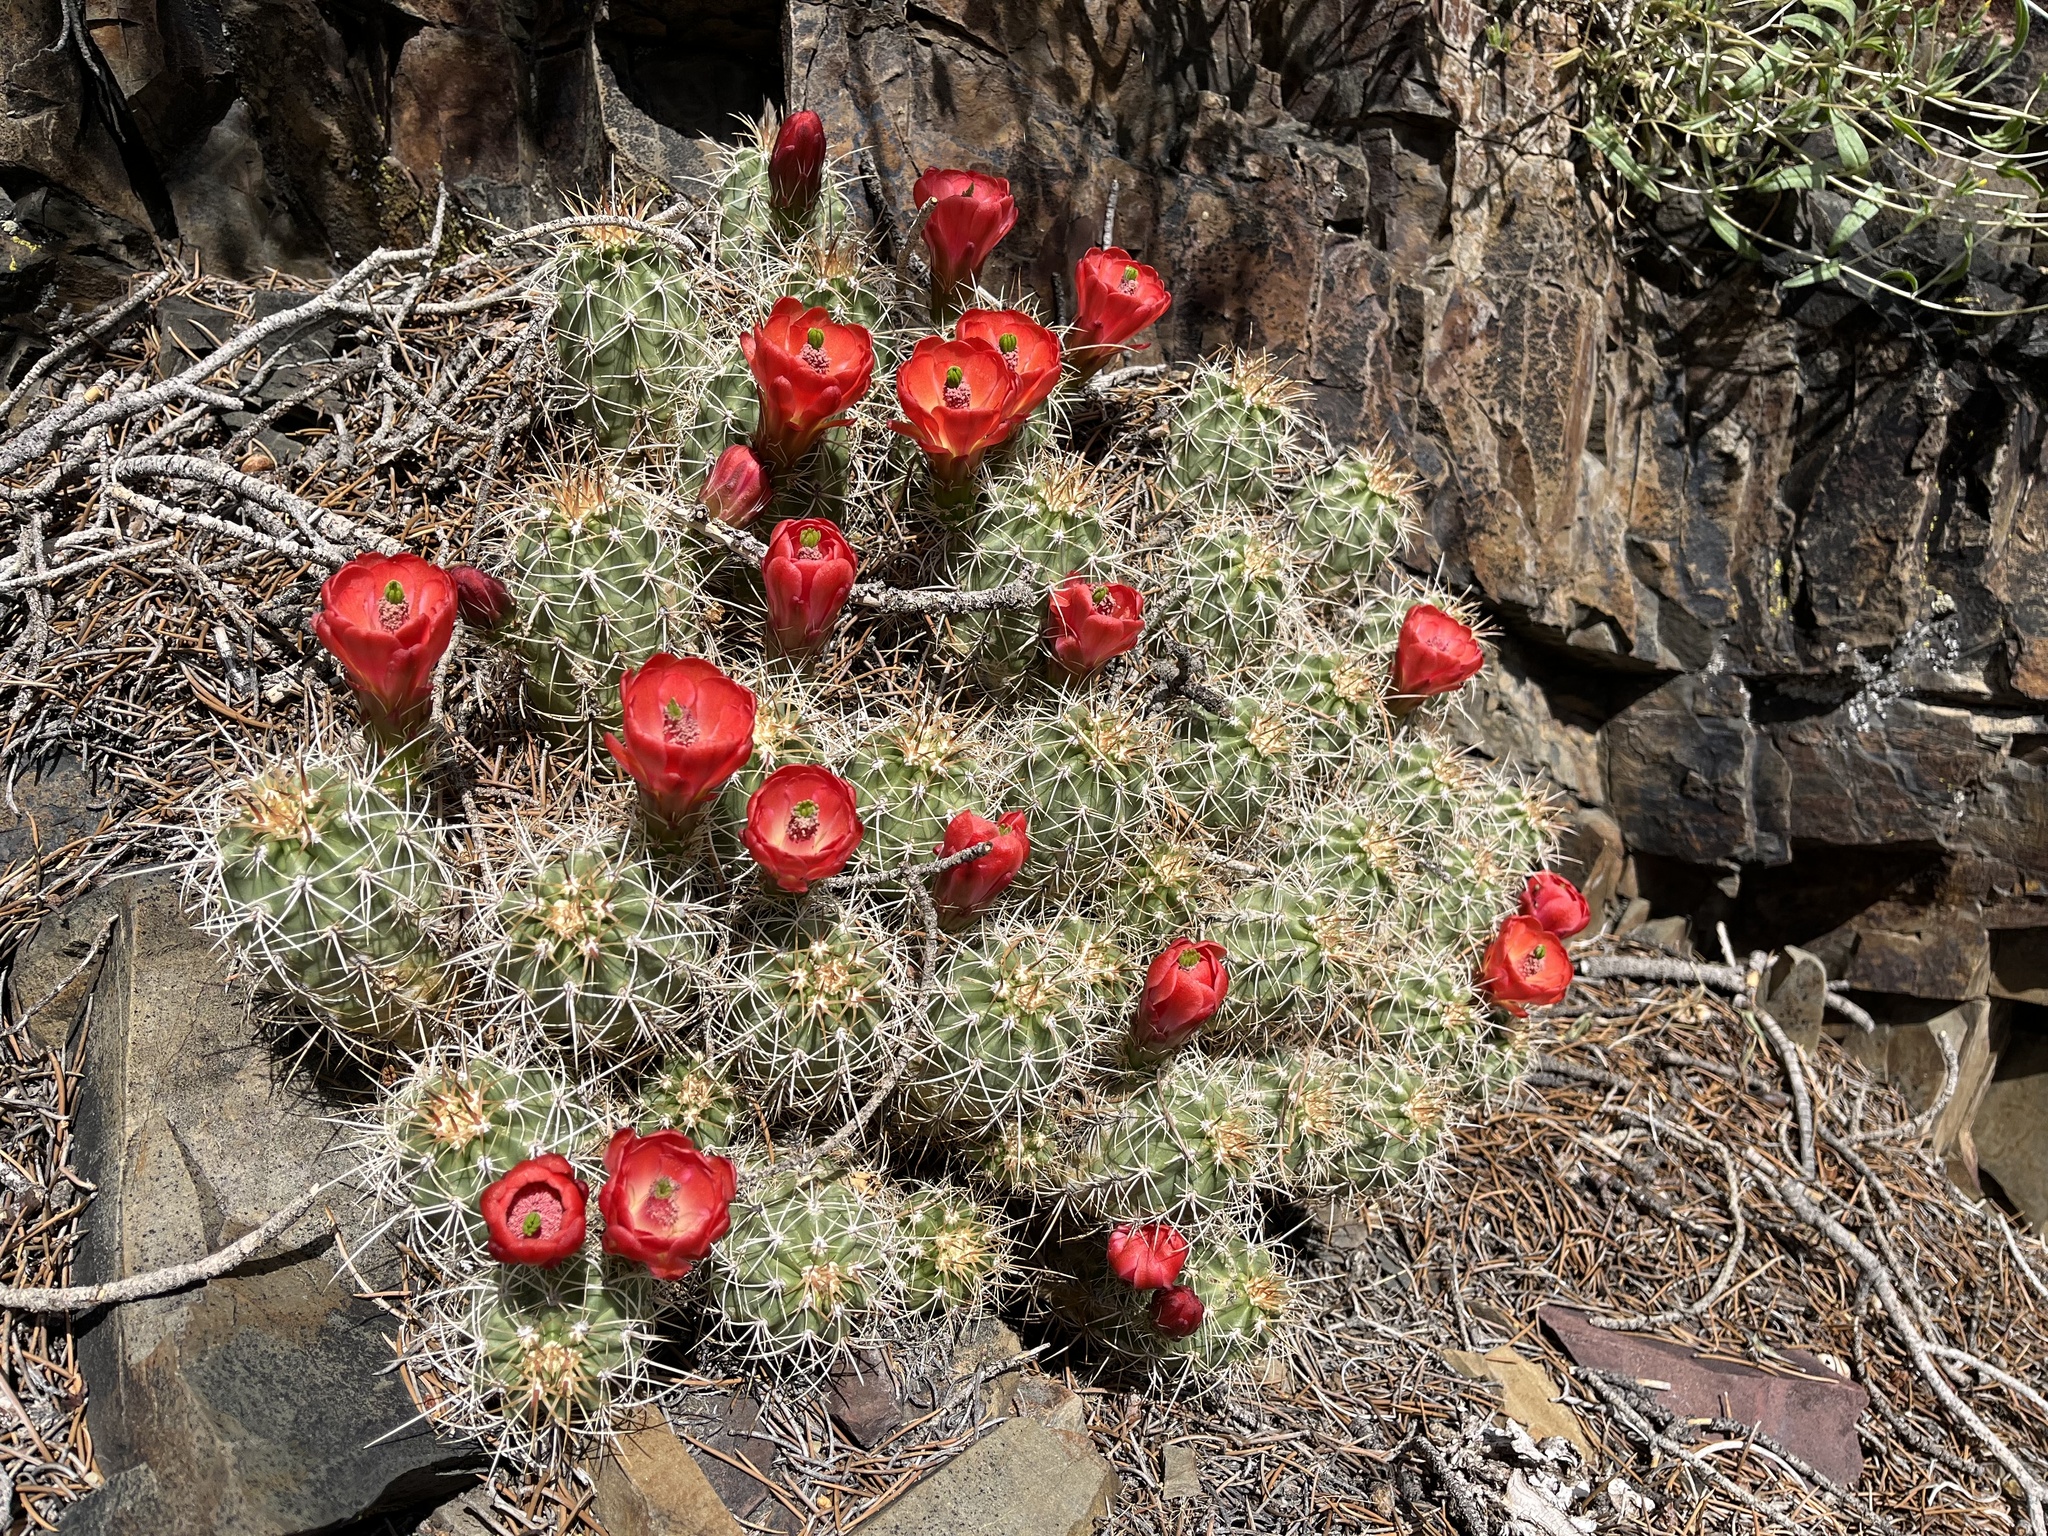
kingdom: Plantae
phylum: Tracheophyta
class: Magnoliopsida
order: Caryophyllales
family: Cactaceae
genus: Echinocereus
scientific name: Echinocereus triglochidiatus
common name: Claretcup hedgehog
